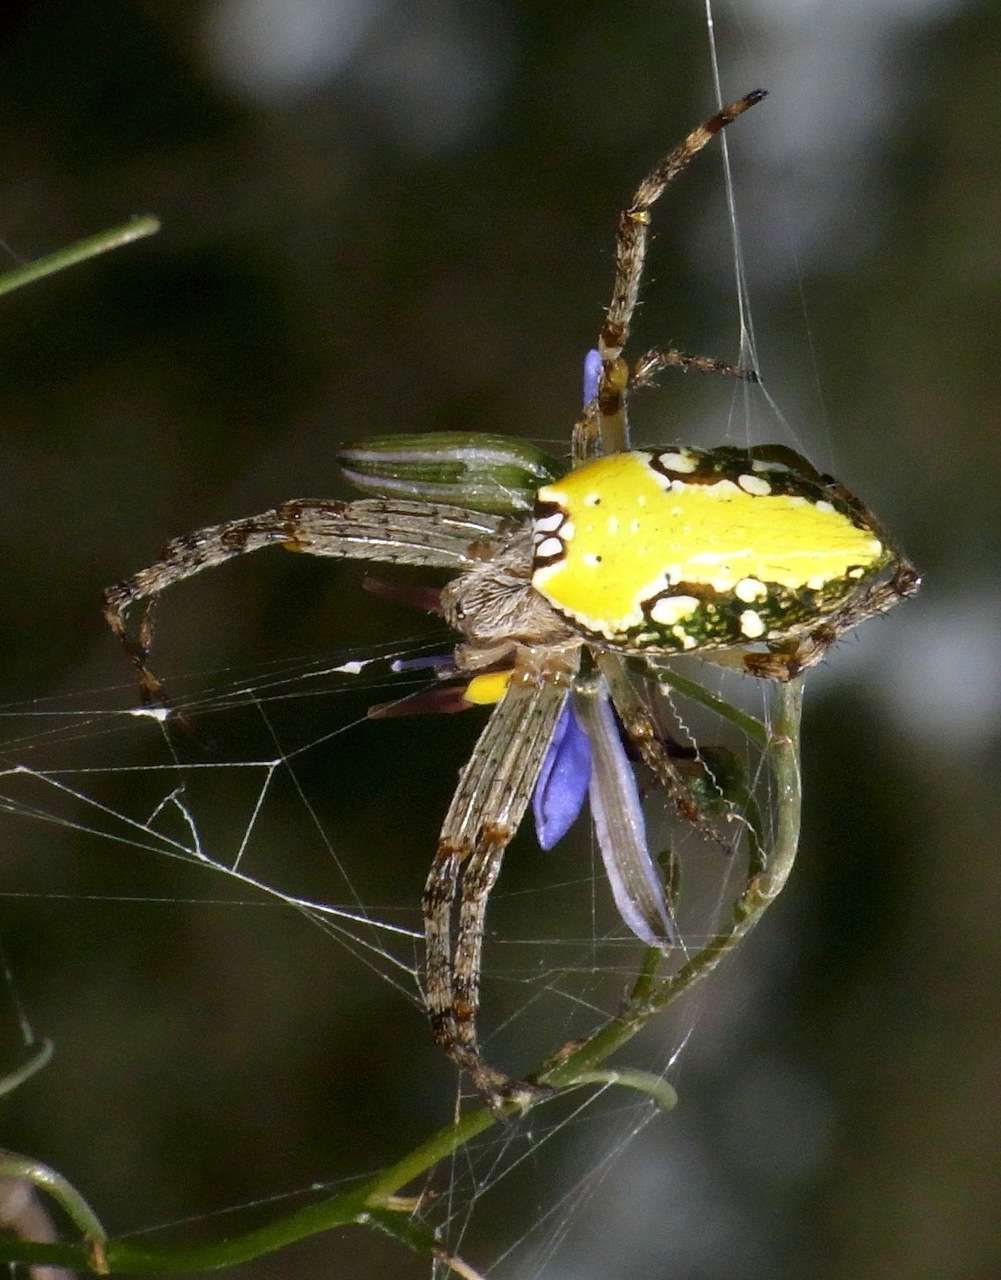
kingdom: Animalia
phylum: Arthropoda
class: Arachnida
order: Araneae
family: Araneidae
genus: Plebs
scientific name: Plebs bradleyi
